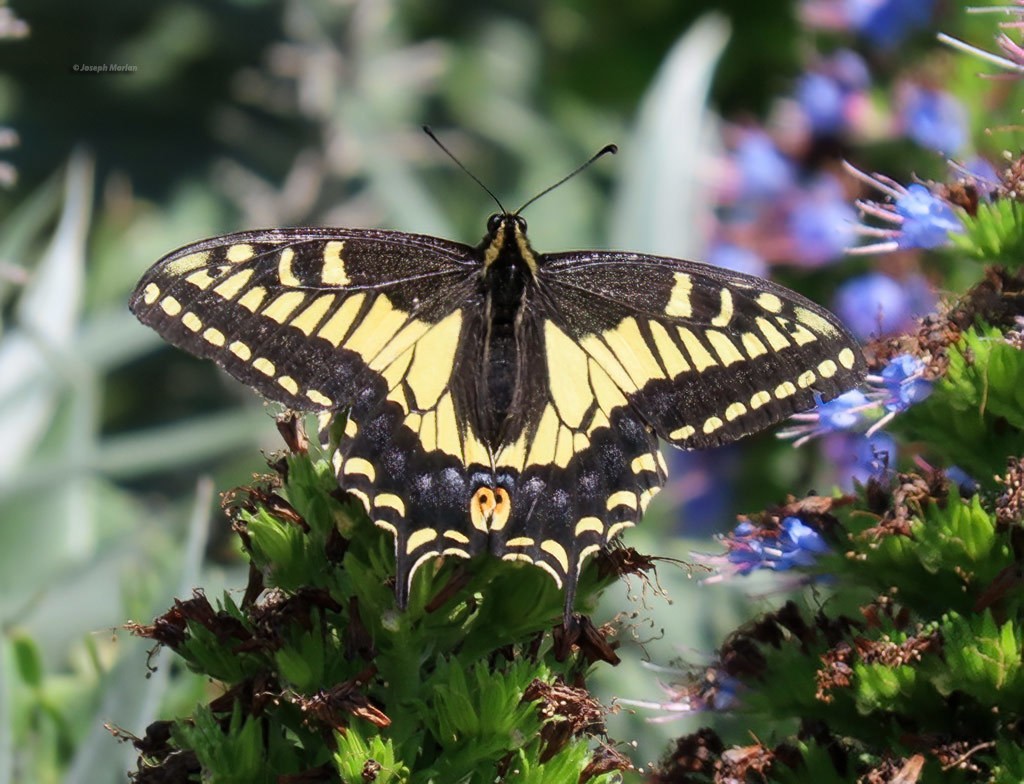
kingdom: Animalia
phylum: Arthropoda
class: Insecta
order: Lepidoptera
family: Papilionidae
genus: Papilio
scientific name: Papilio zelicaon
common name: Anise swallowtail
